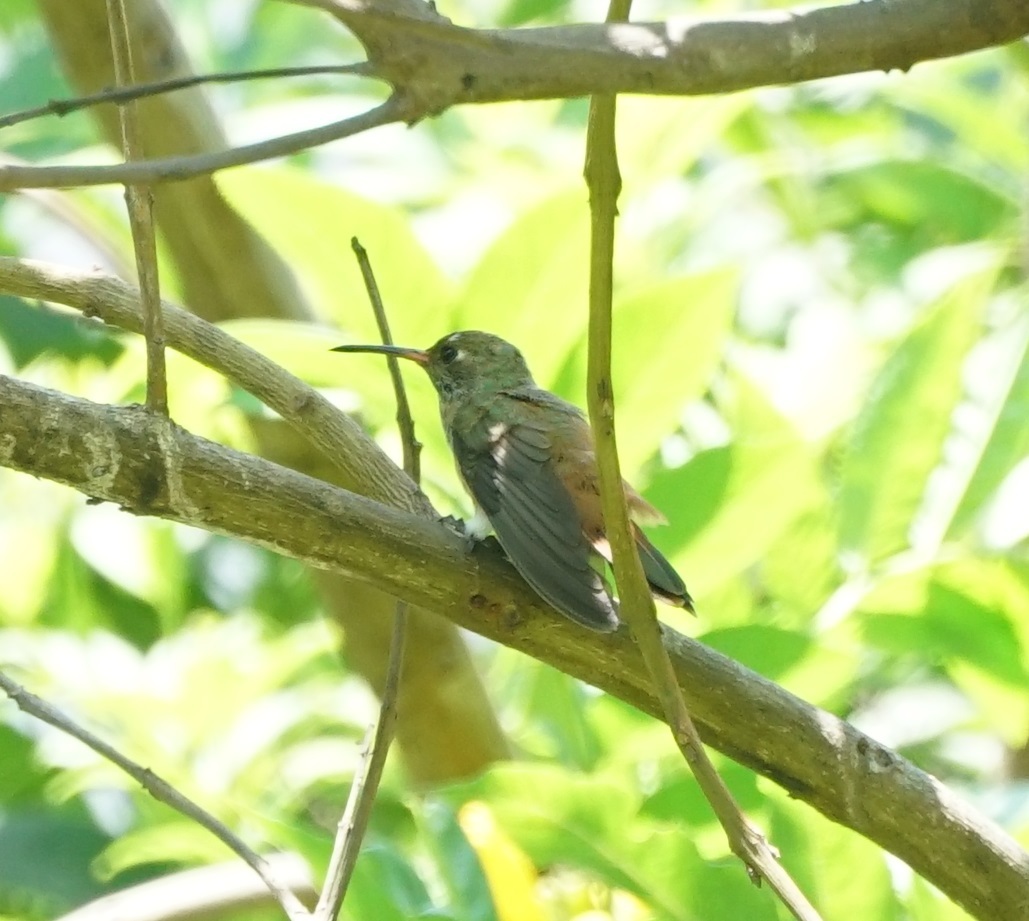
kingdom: Animalia
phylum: Chordata
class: Aves
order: Apodiformes
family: Trochilidae
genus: Amazilis
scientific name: Amazilis amazilia
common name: Amazilia hummingbird
